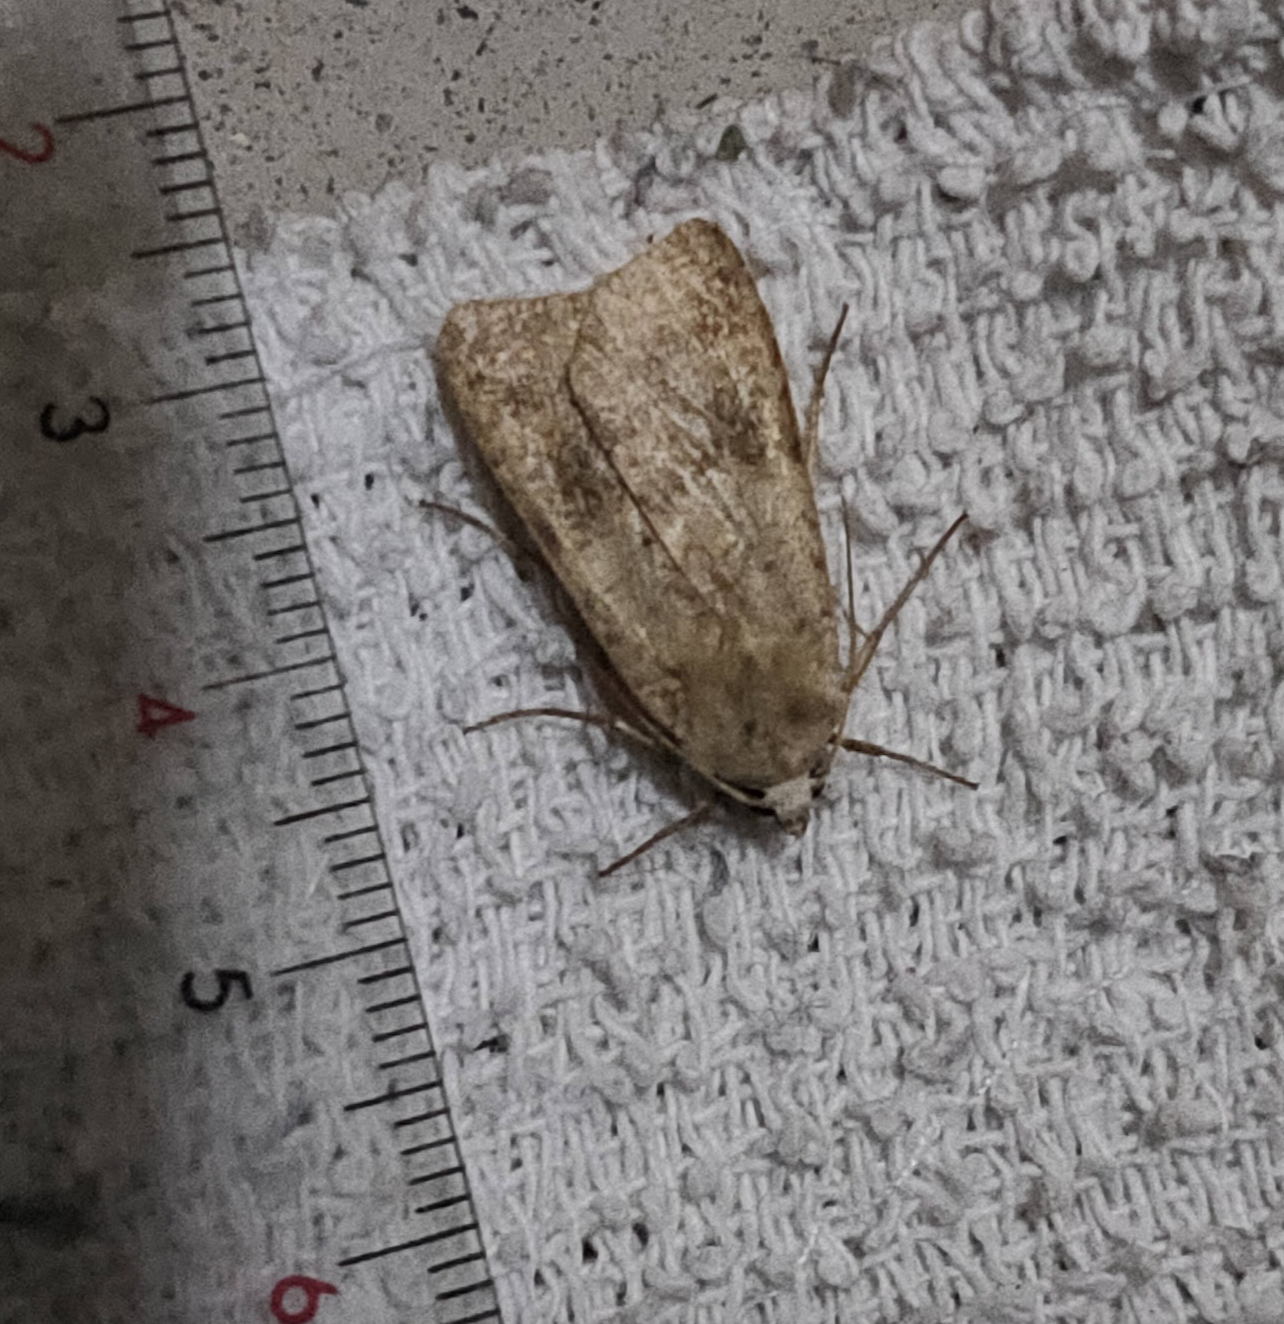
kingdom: Animalia
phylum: Arthropoda
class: Insecta
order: Lepidoptera
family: Noctuidae
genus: Diarsia
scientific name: Diarsia canescens
